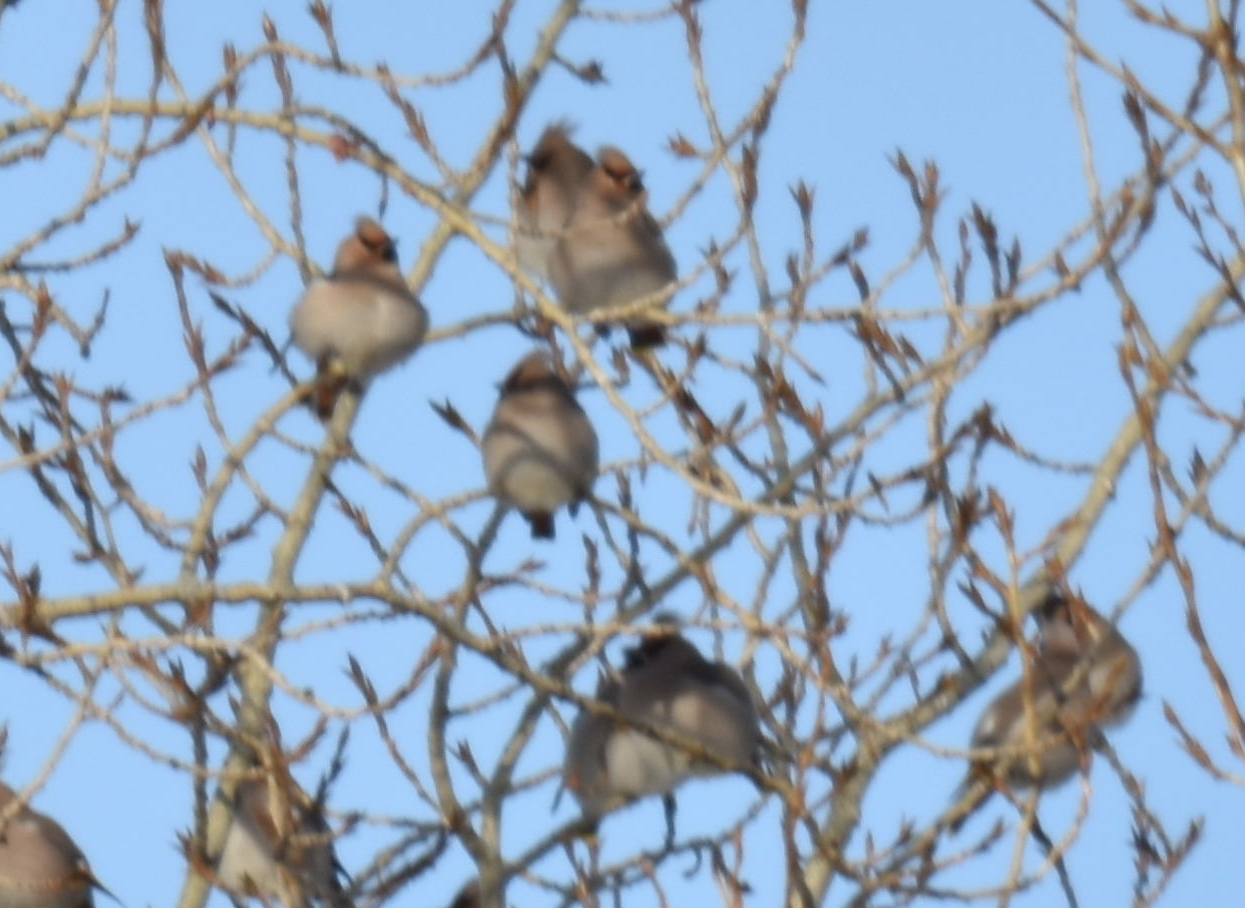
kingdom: Animalia
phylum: Chordata
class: Aves
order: Passeriformes
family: Bombycillidae
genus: Bombycilla
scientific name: Bombycilla garrulus
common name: Bohemian waxwing
